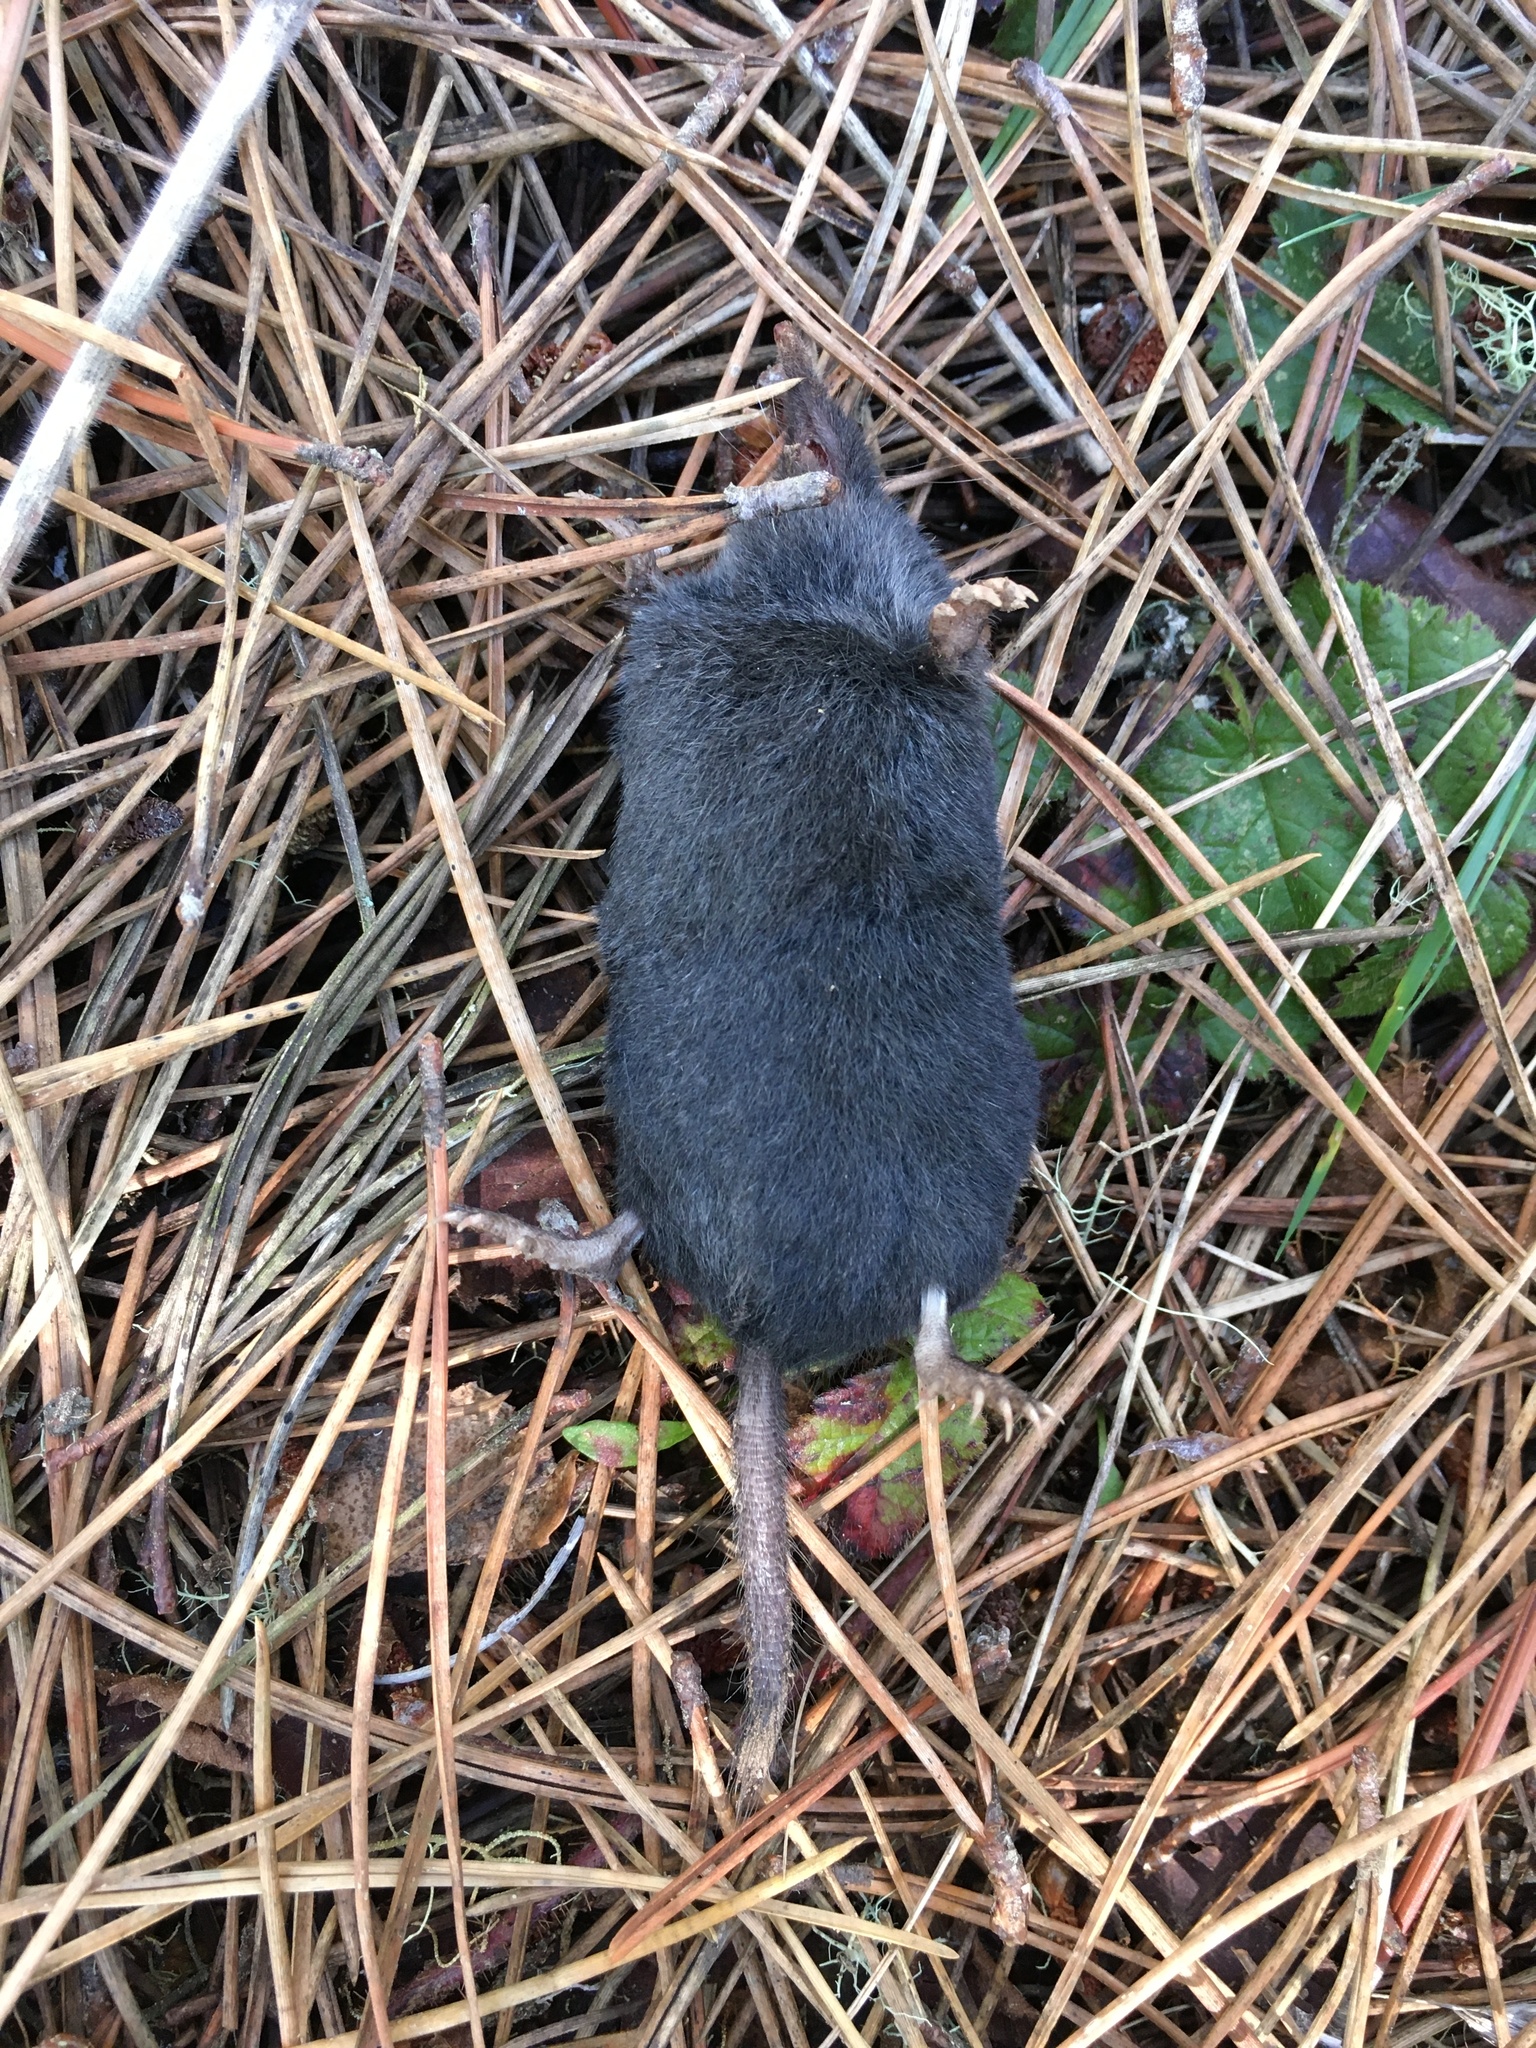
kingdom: Animalia
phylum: Chordata
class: Mammalia
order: Soricomorpha
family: Talpidae
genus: Neurotrichus
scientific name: Neurotrichus gibbsii
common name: American shrew mole
